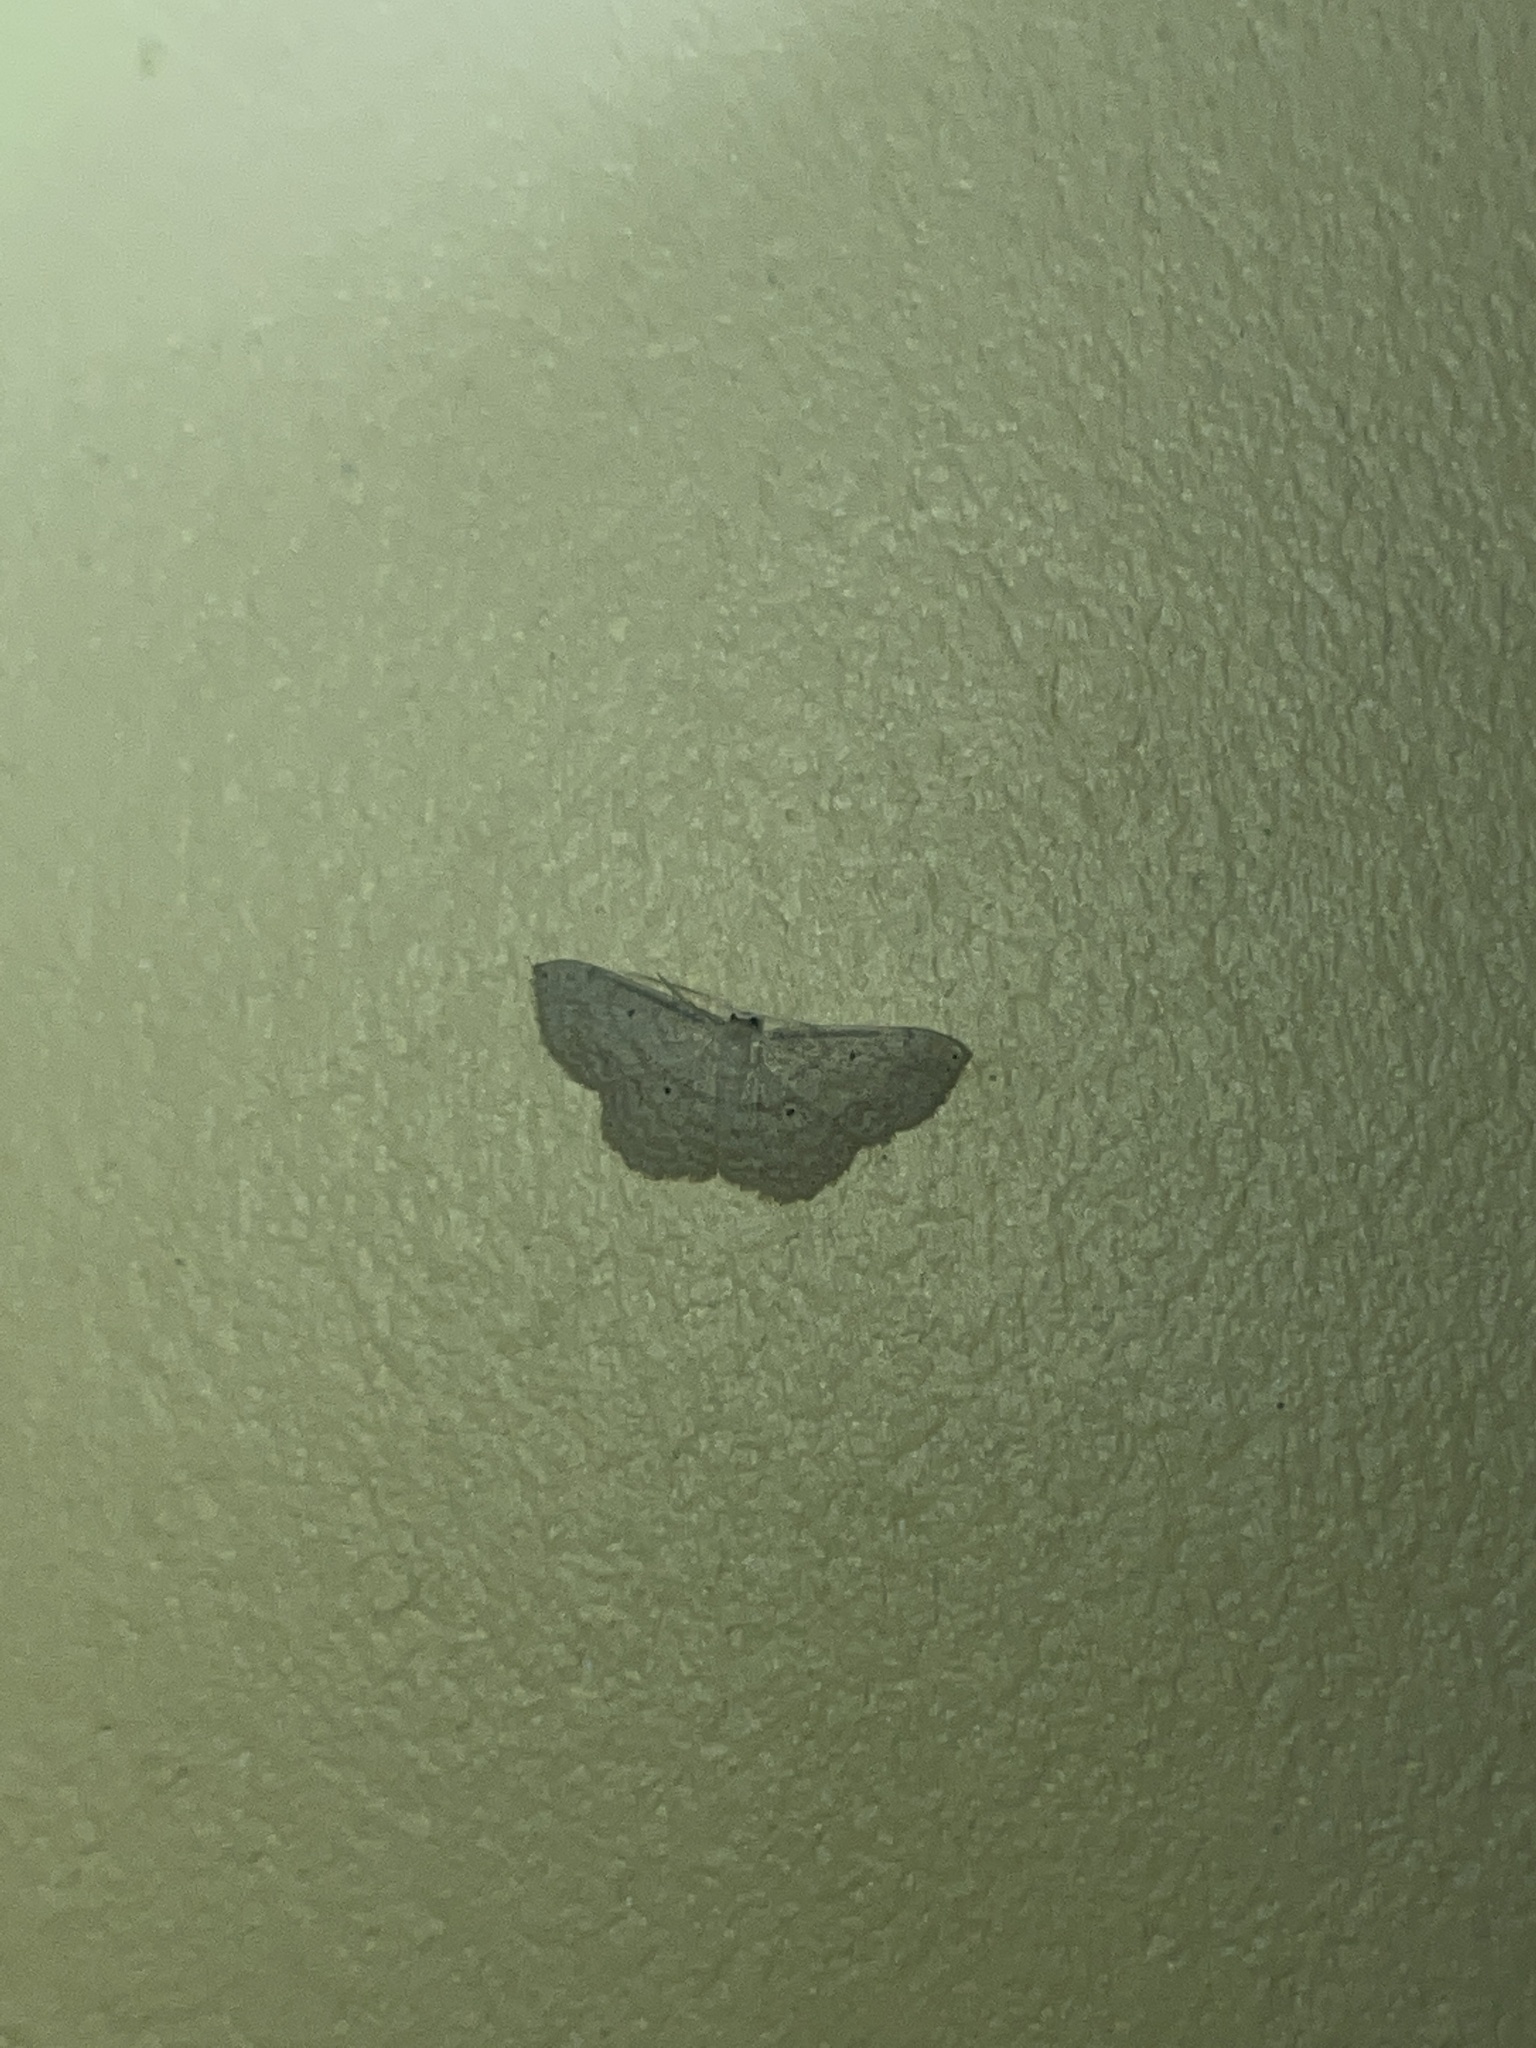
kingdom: Animalia
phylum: Arthropoda
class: Insecta
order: Lepidoptera
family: Geometridae
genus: Scopula
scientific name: Scopula apparitaria
